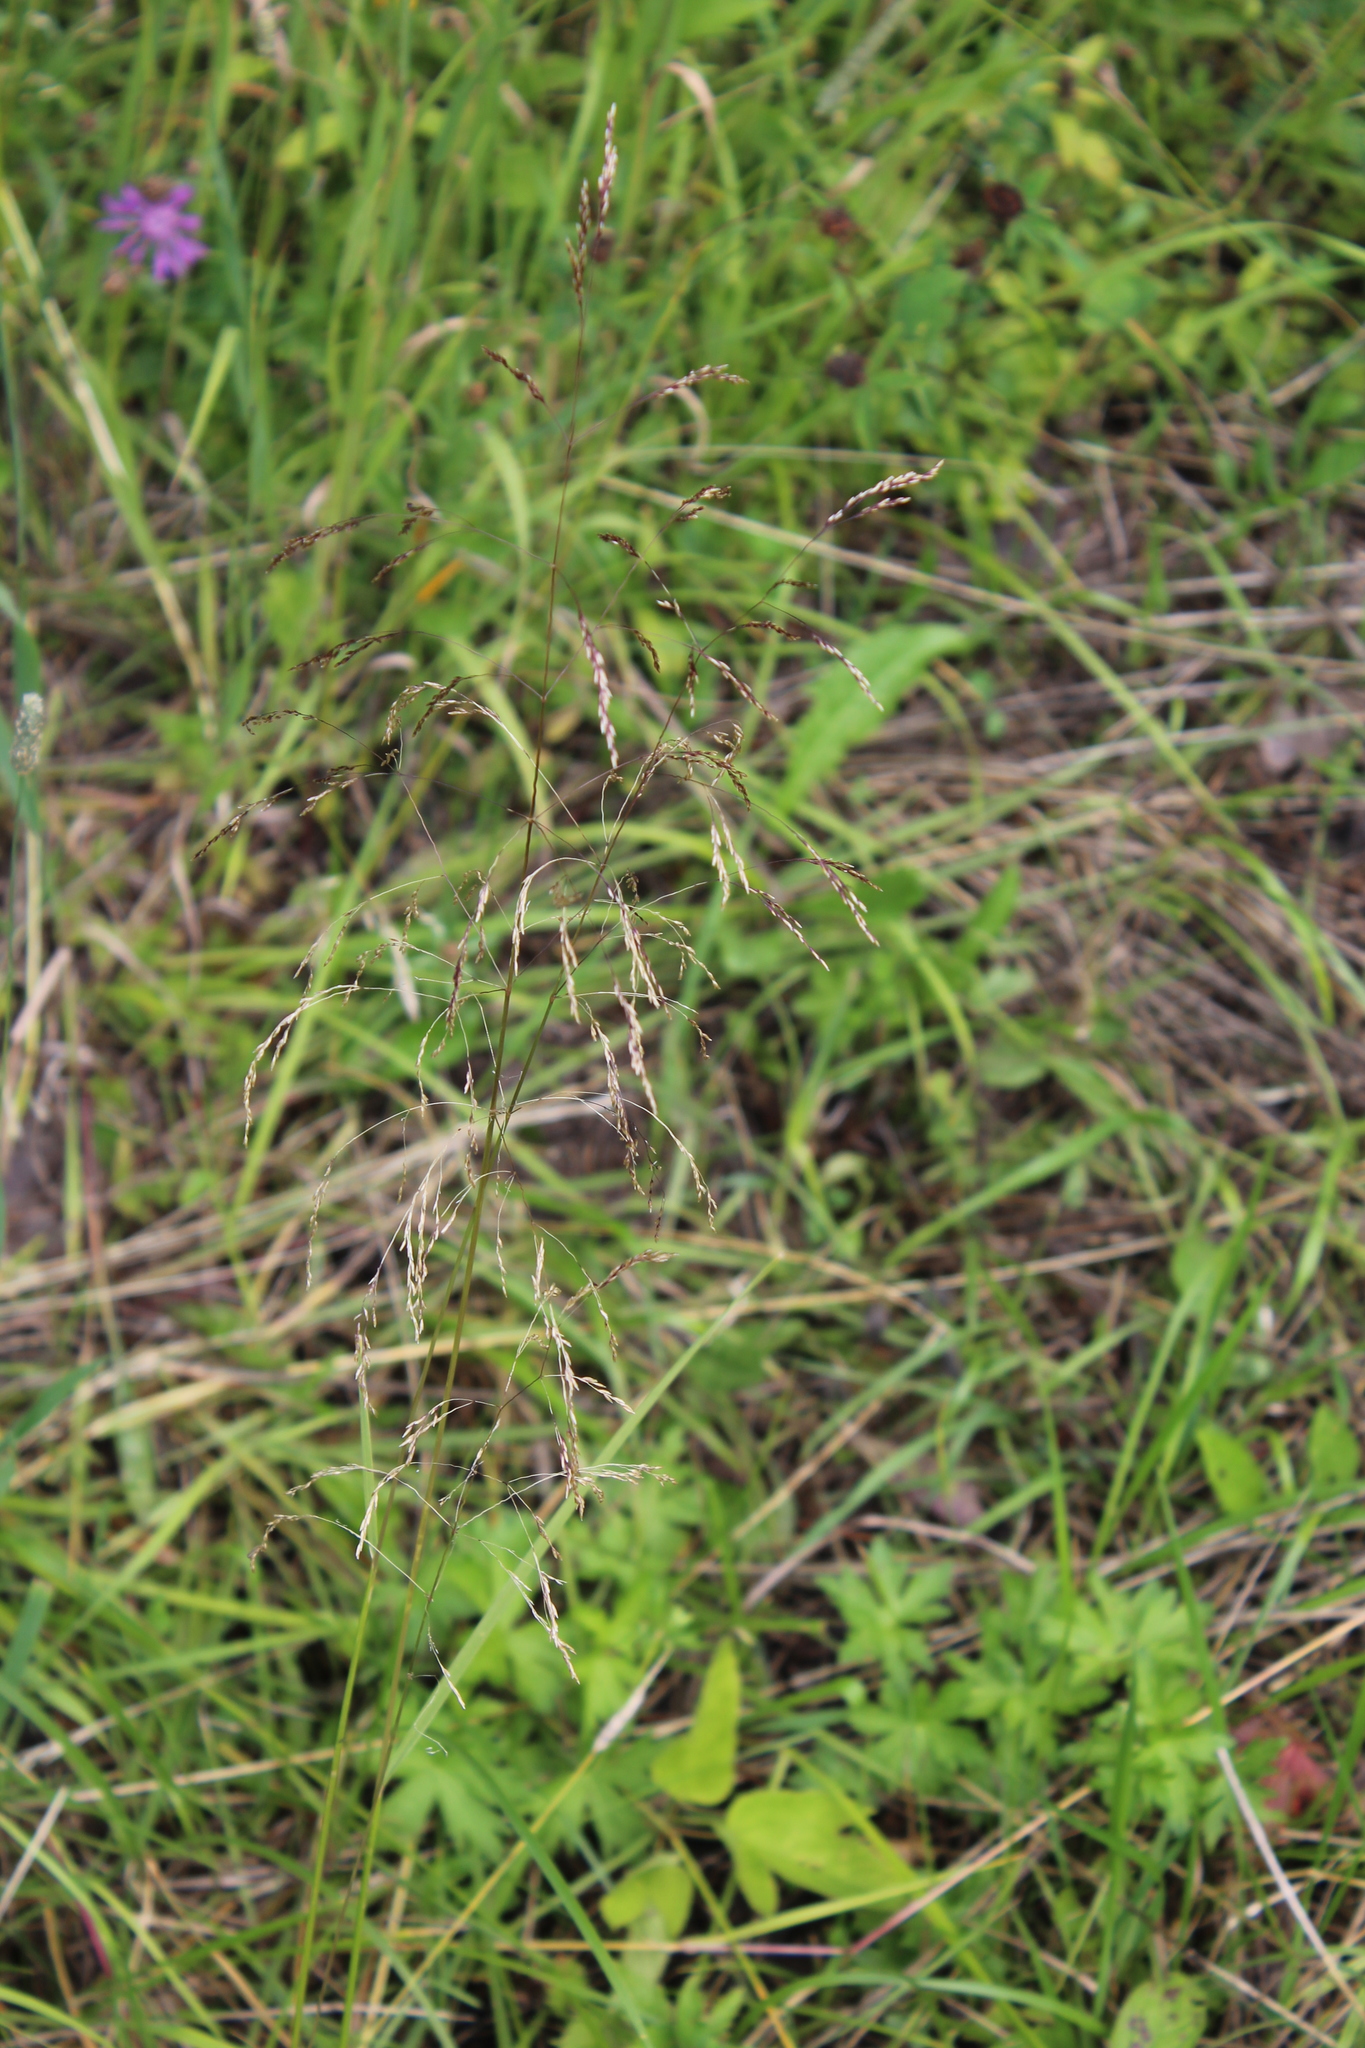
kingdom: Plantae
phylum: Tracheophyta
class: Liliopsida
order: Poales
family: Poaceae
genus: Deschampsia
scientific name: Deschampsia cespitosa
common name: Tufted hair-grass
